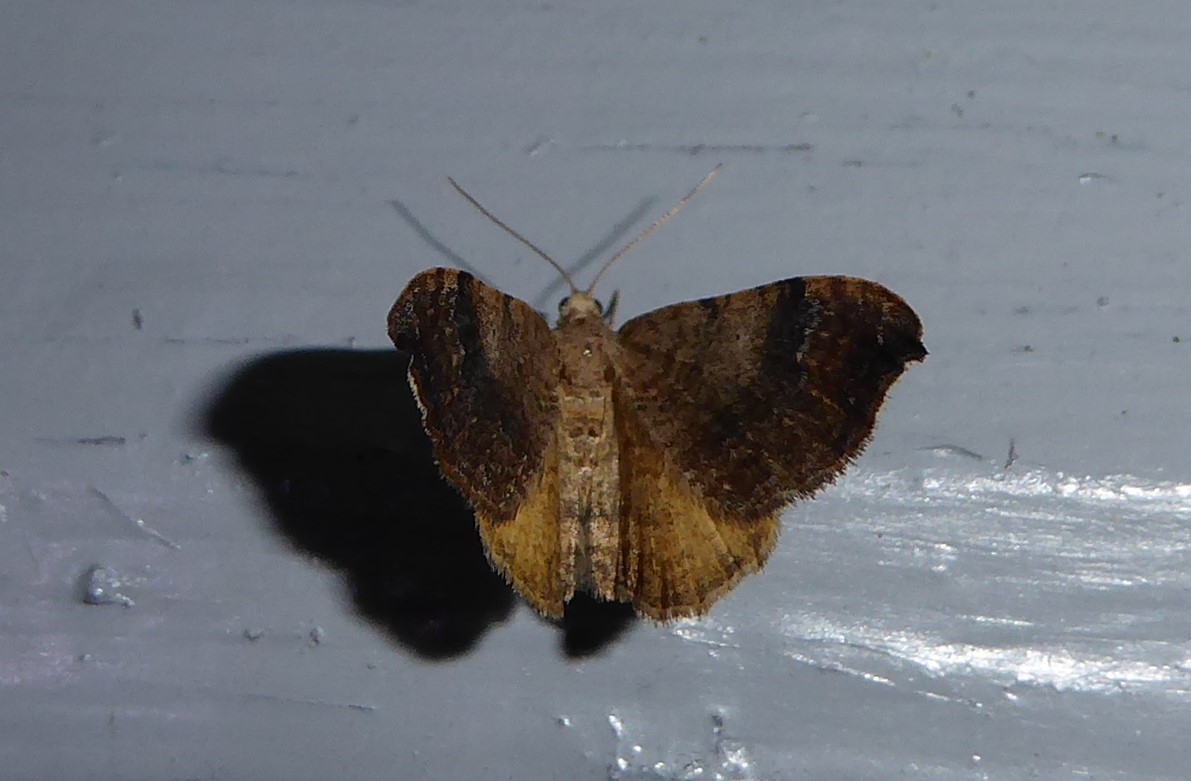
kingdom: Animalia
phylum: Arthropoda
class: Insecta
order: Lepidoptera
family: Geometridae
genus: Homodotis
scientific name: Homodotis megaspilata
